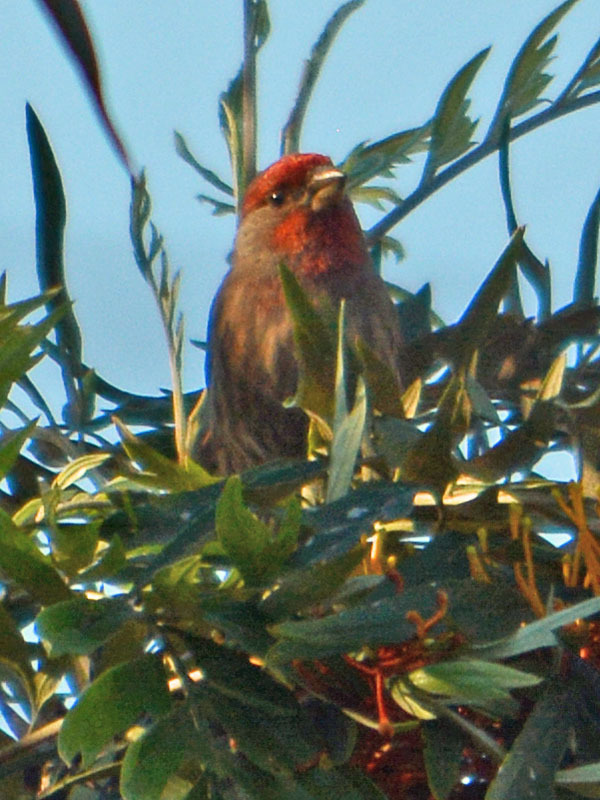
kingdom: Animalia
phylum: Chordata
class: Aves
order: Passeriformes
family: Fringillidae
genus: Haemorhous
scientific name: Haemorhous mexicanus
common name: House finch
